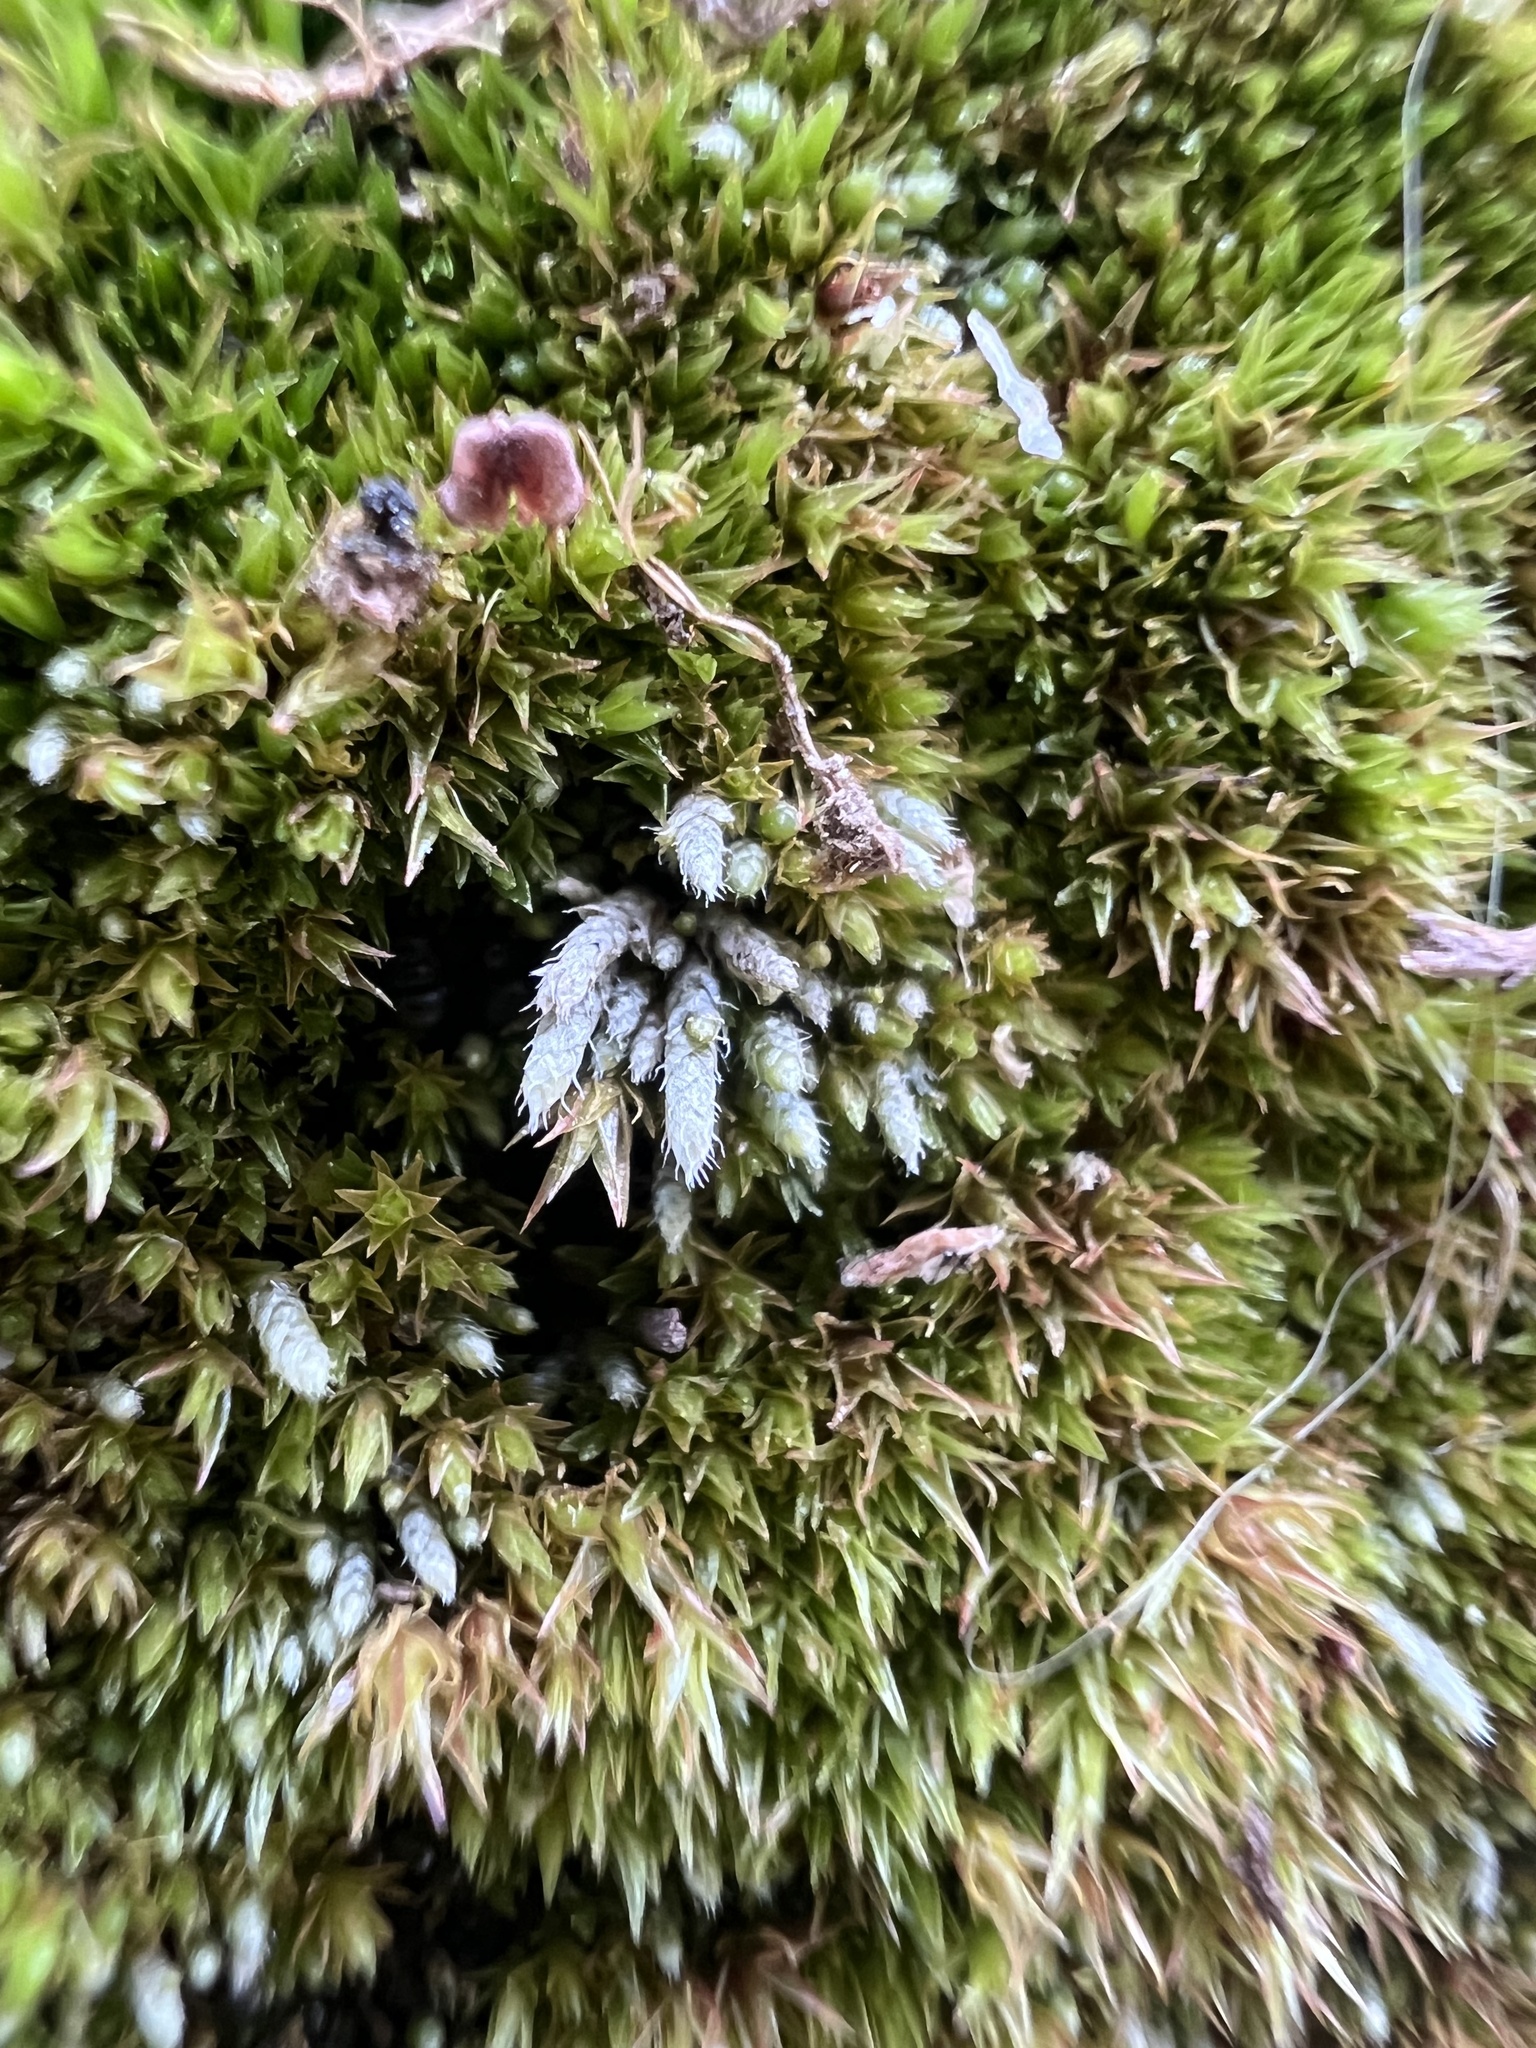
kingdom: Plantae
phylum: Bryophyta
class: Bryopsida
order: Bryales
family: Bryaceae
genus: Bryum
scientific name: Bryum argenteum
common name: Silver-moss
